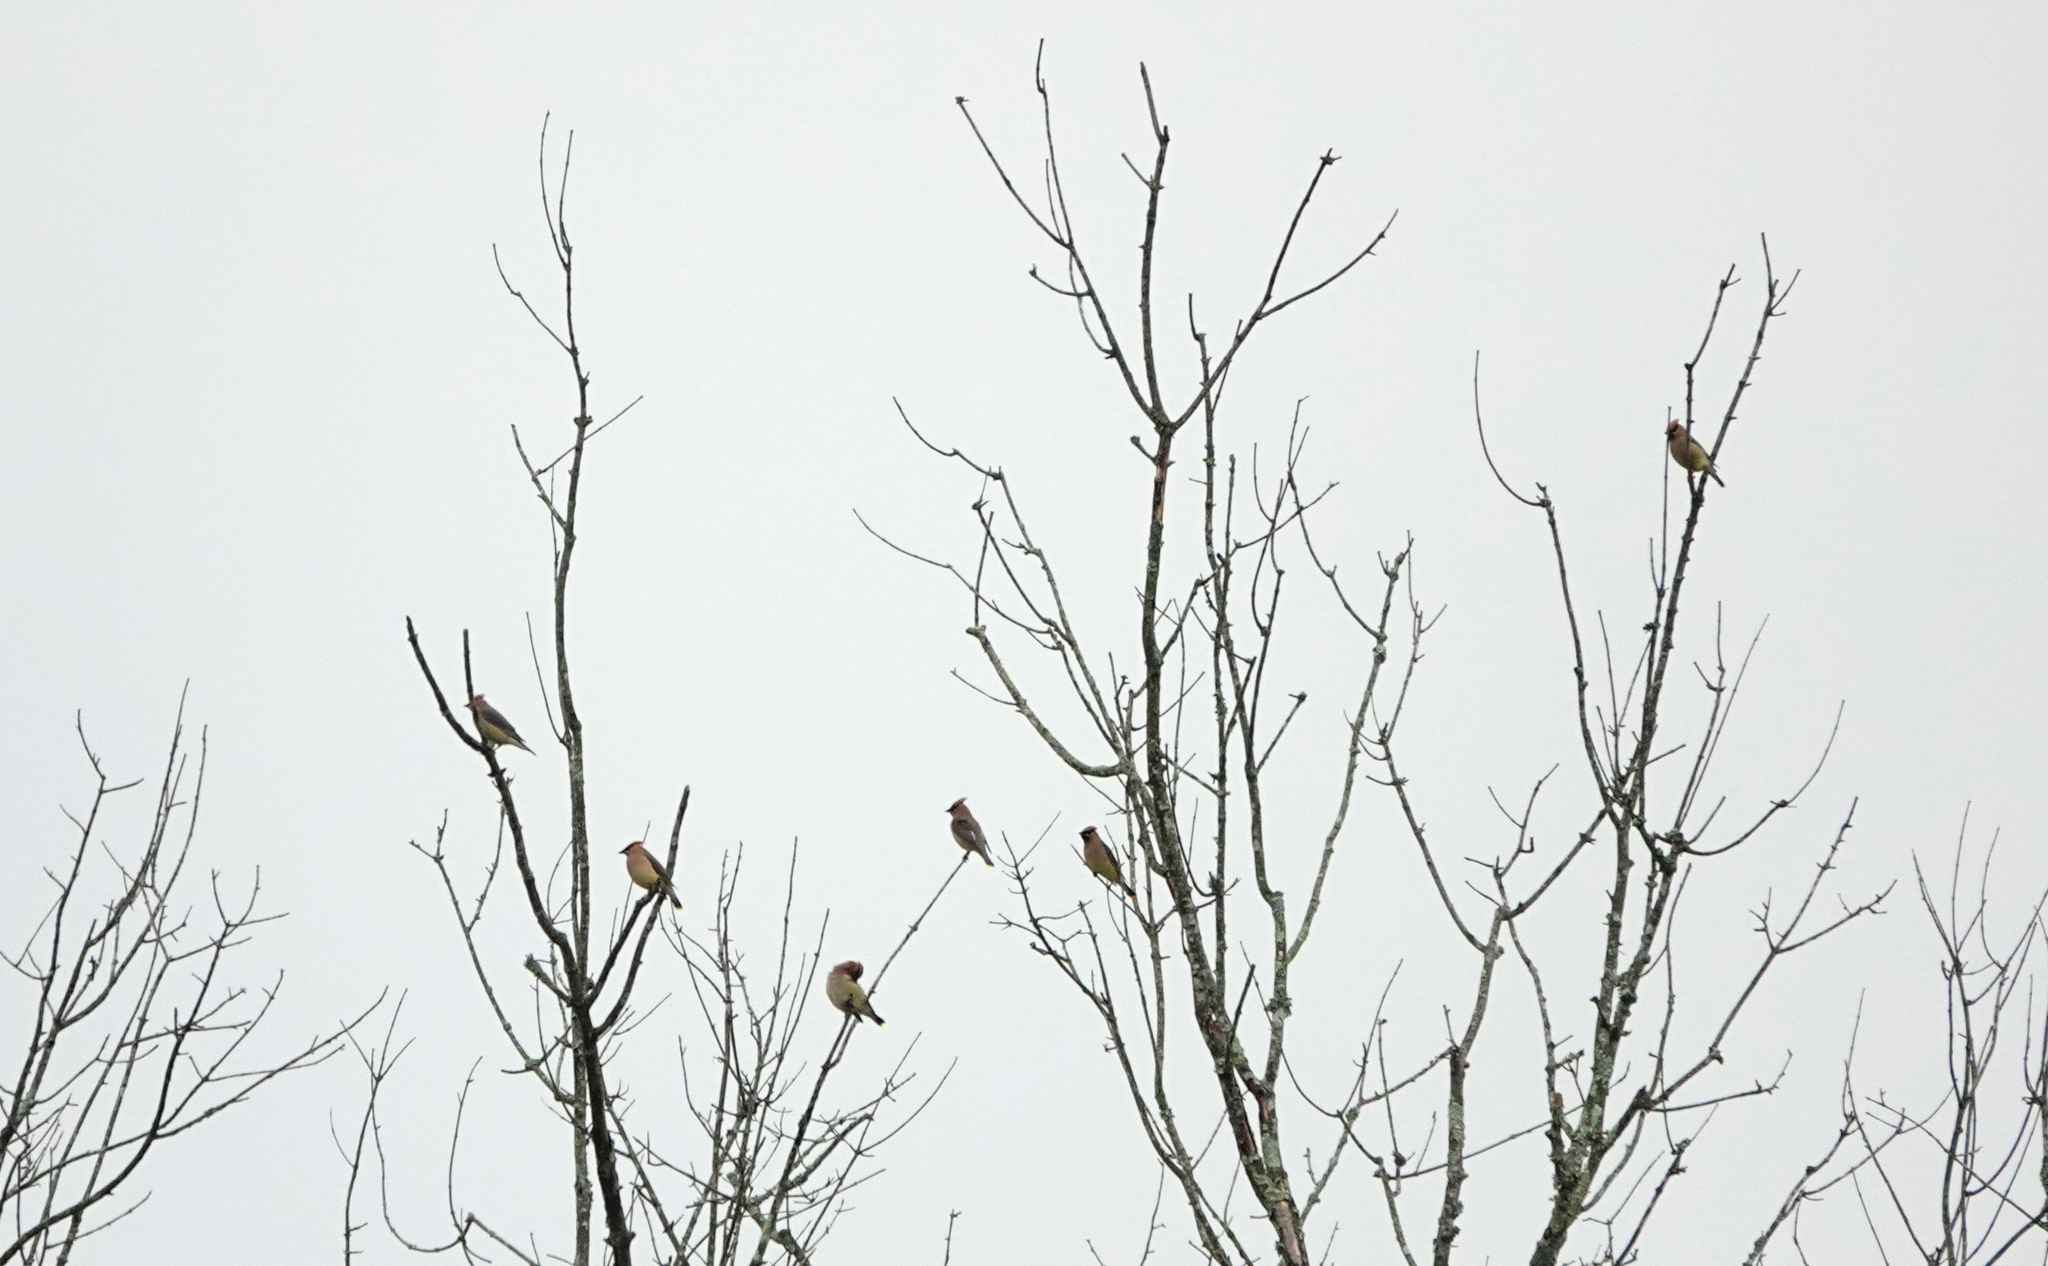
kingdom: Animalia
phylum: Chordata
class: Aves
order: Passeriformes
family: Bombycillidae
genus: Bombycilla
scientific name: Bombycilla cedrorum
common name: Cedar waxwing
